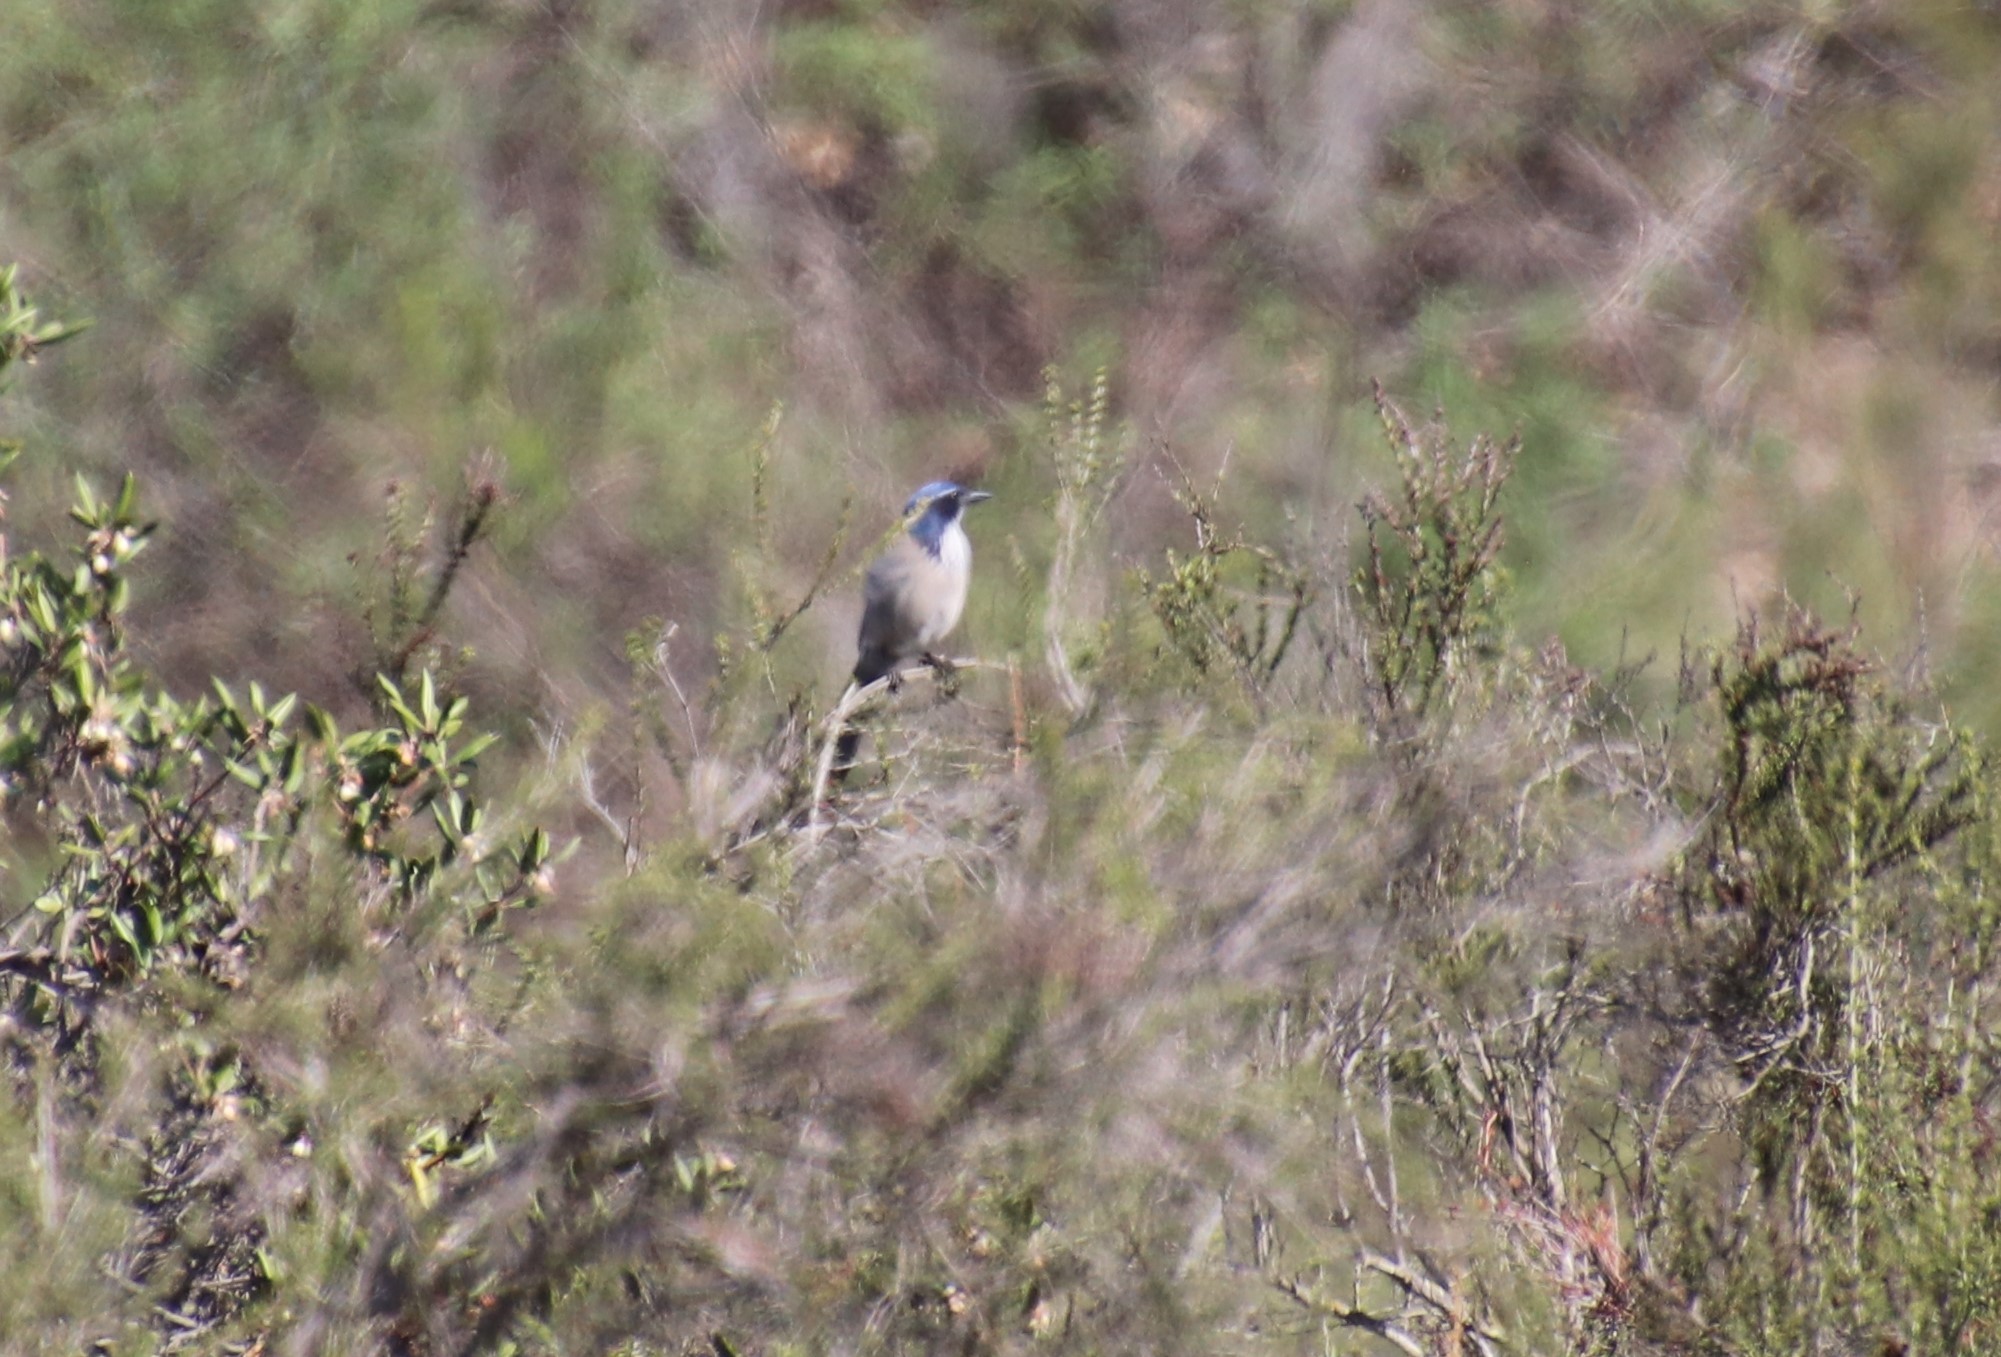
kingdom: Animalia
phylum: Chordata
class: Aves
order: Passeriformes
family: Corvidae
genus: Aphelocoma
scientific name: Aphelocoma californica
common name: California scrub-jay
